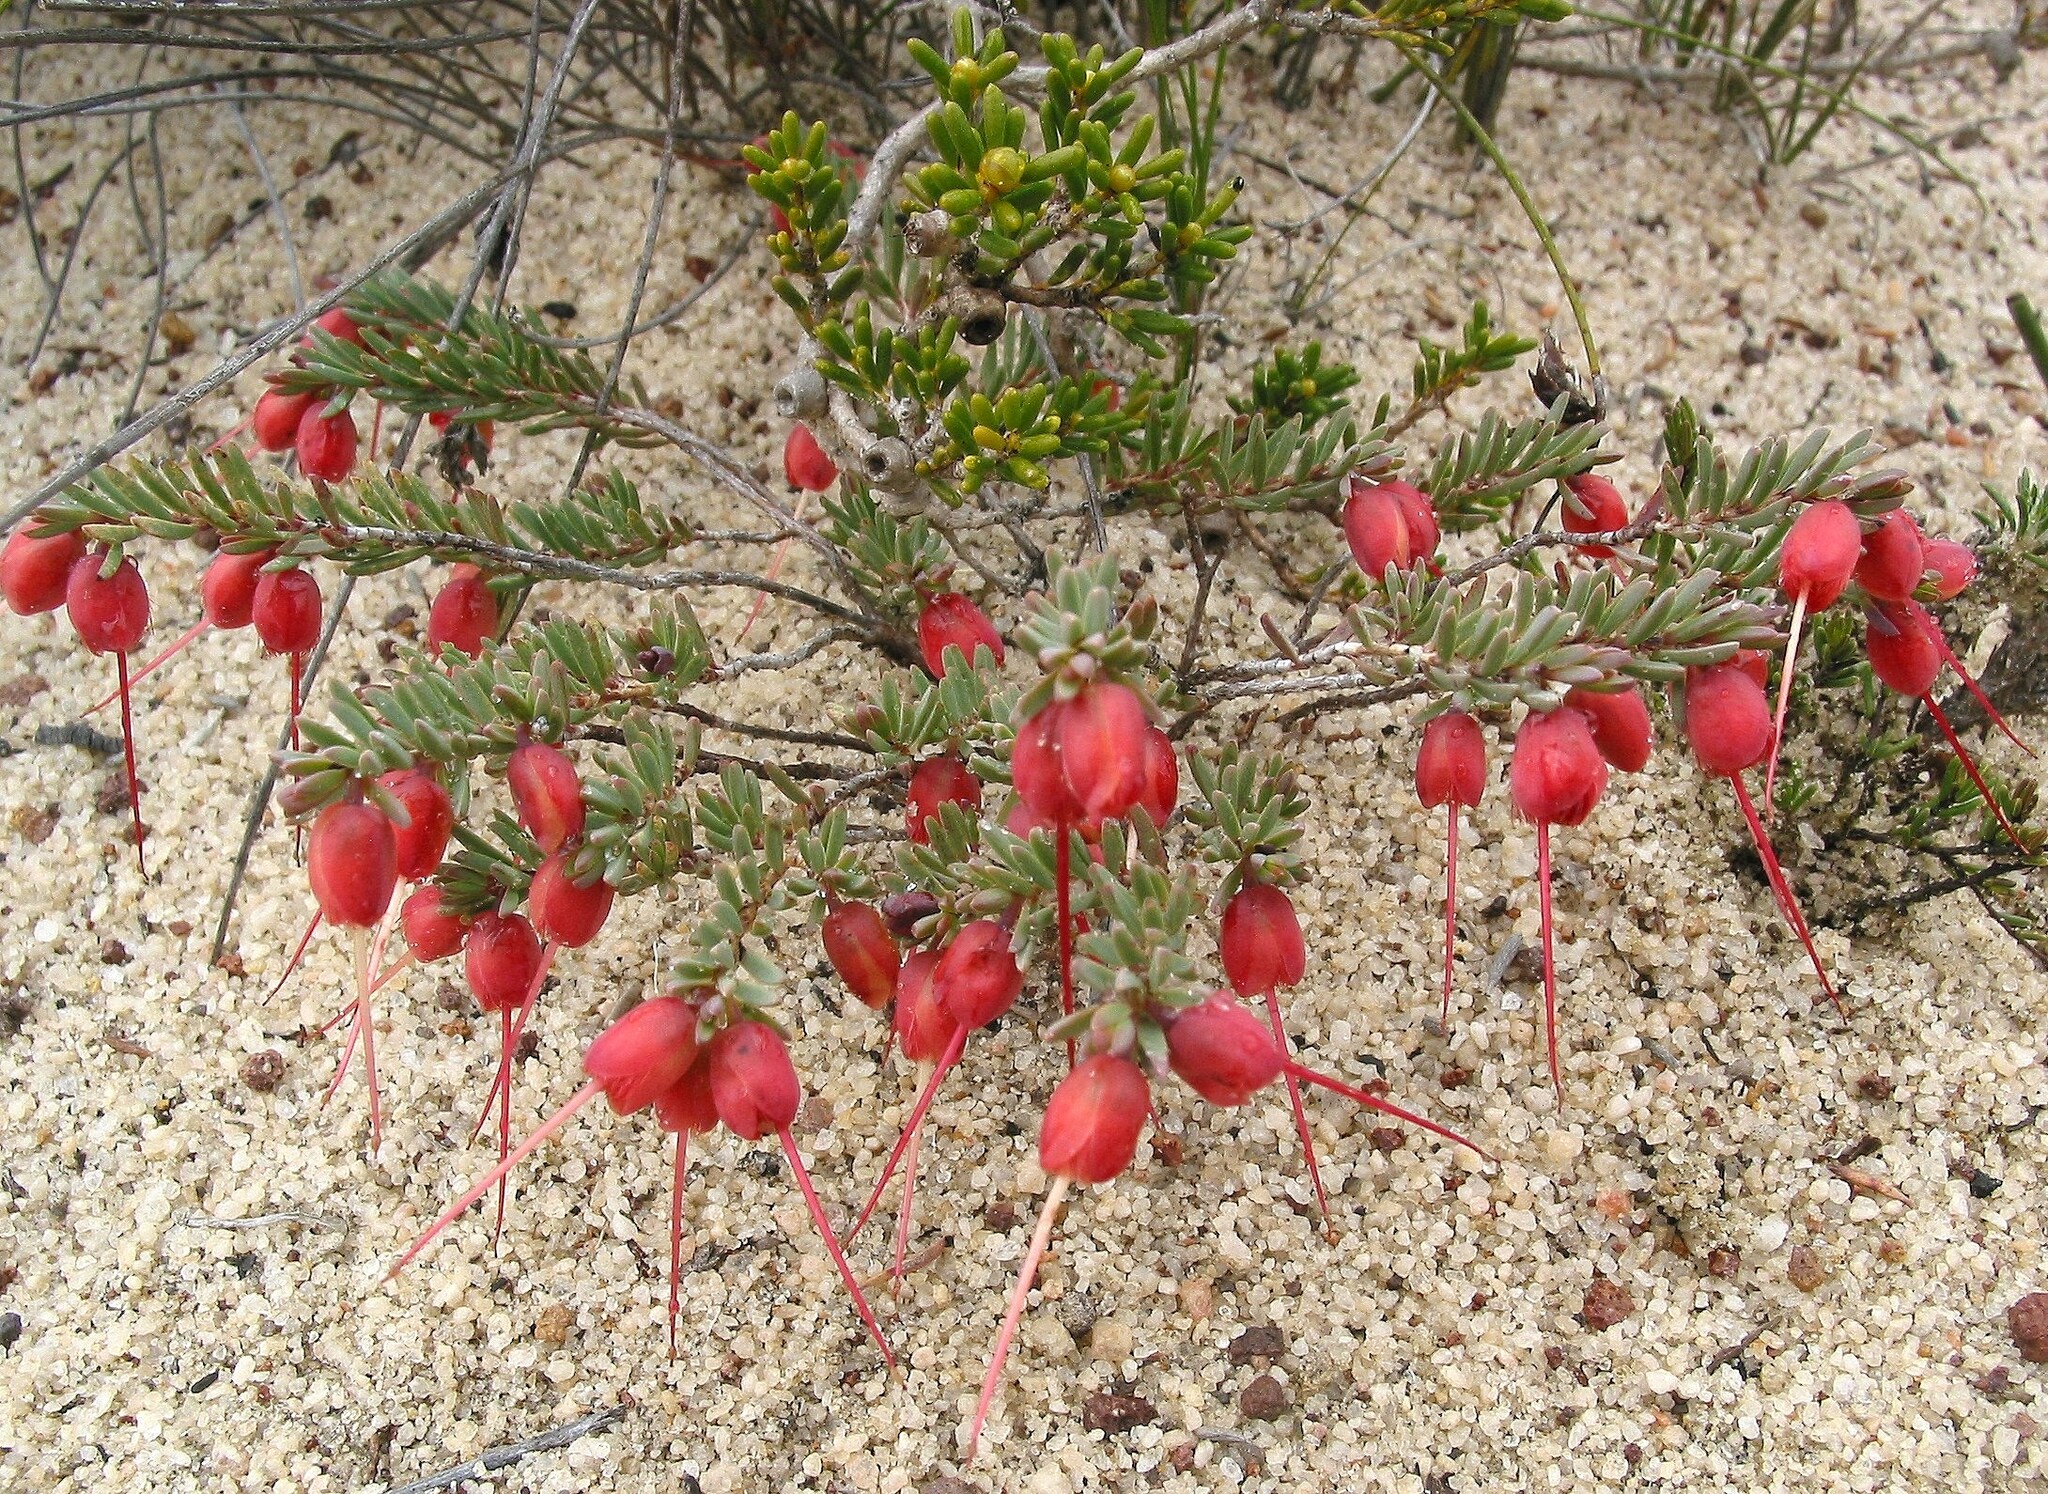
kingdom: Plantae
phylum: Tracheophyta
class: Magnoliopsida
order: Myrtales
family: Myrtaceae
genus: Verticordia
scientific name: Verticordia humilis
